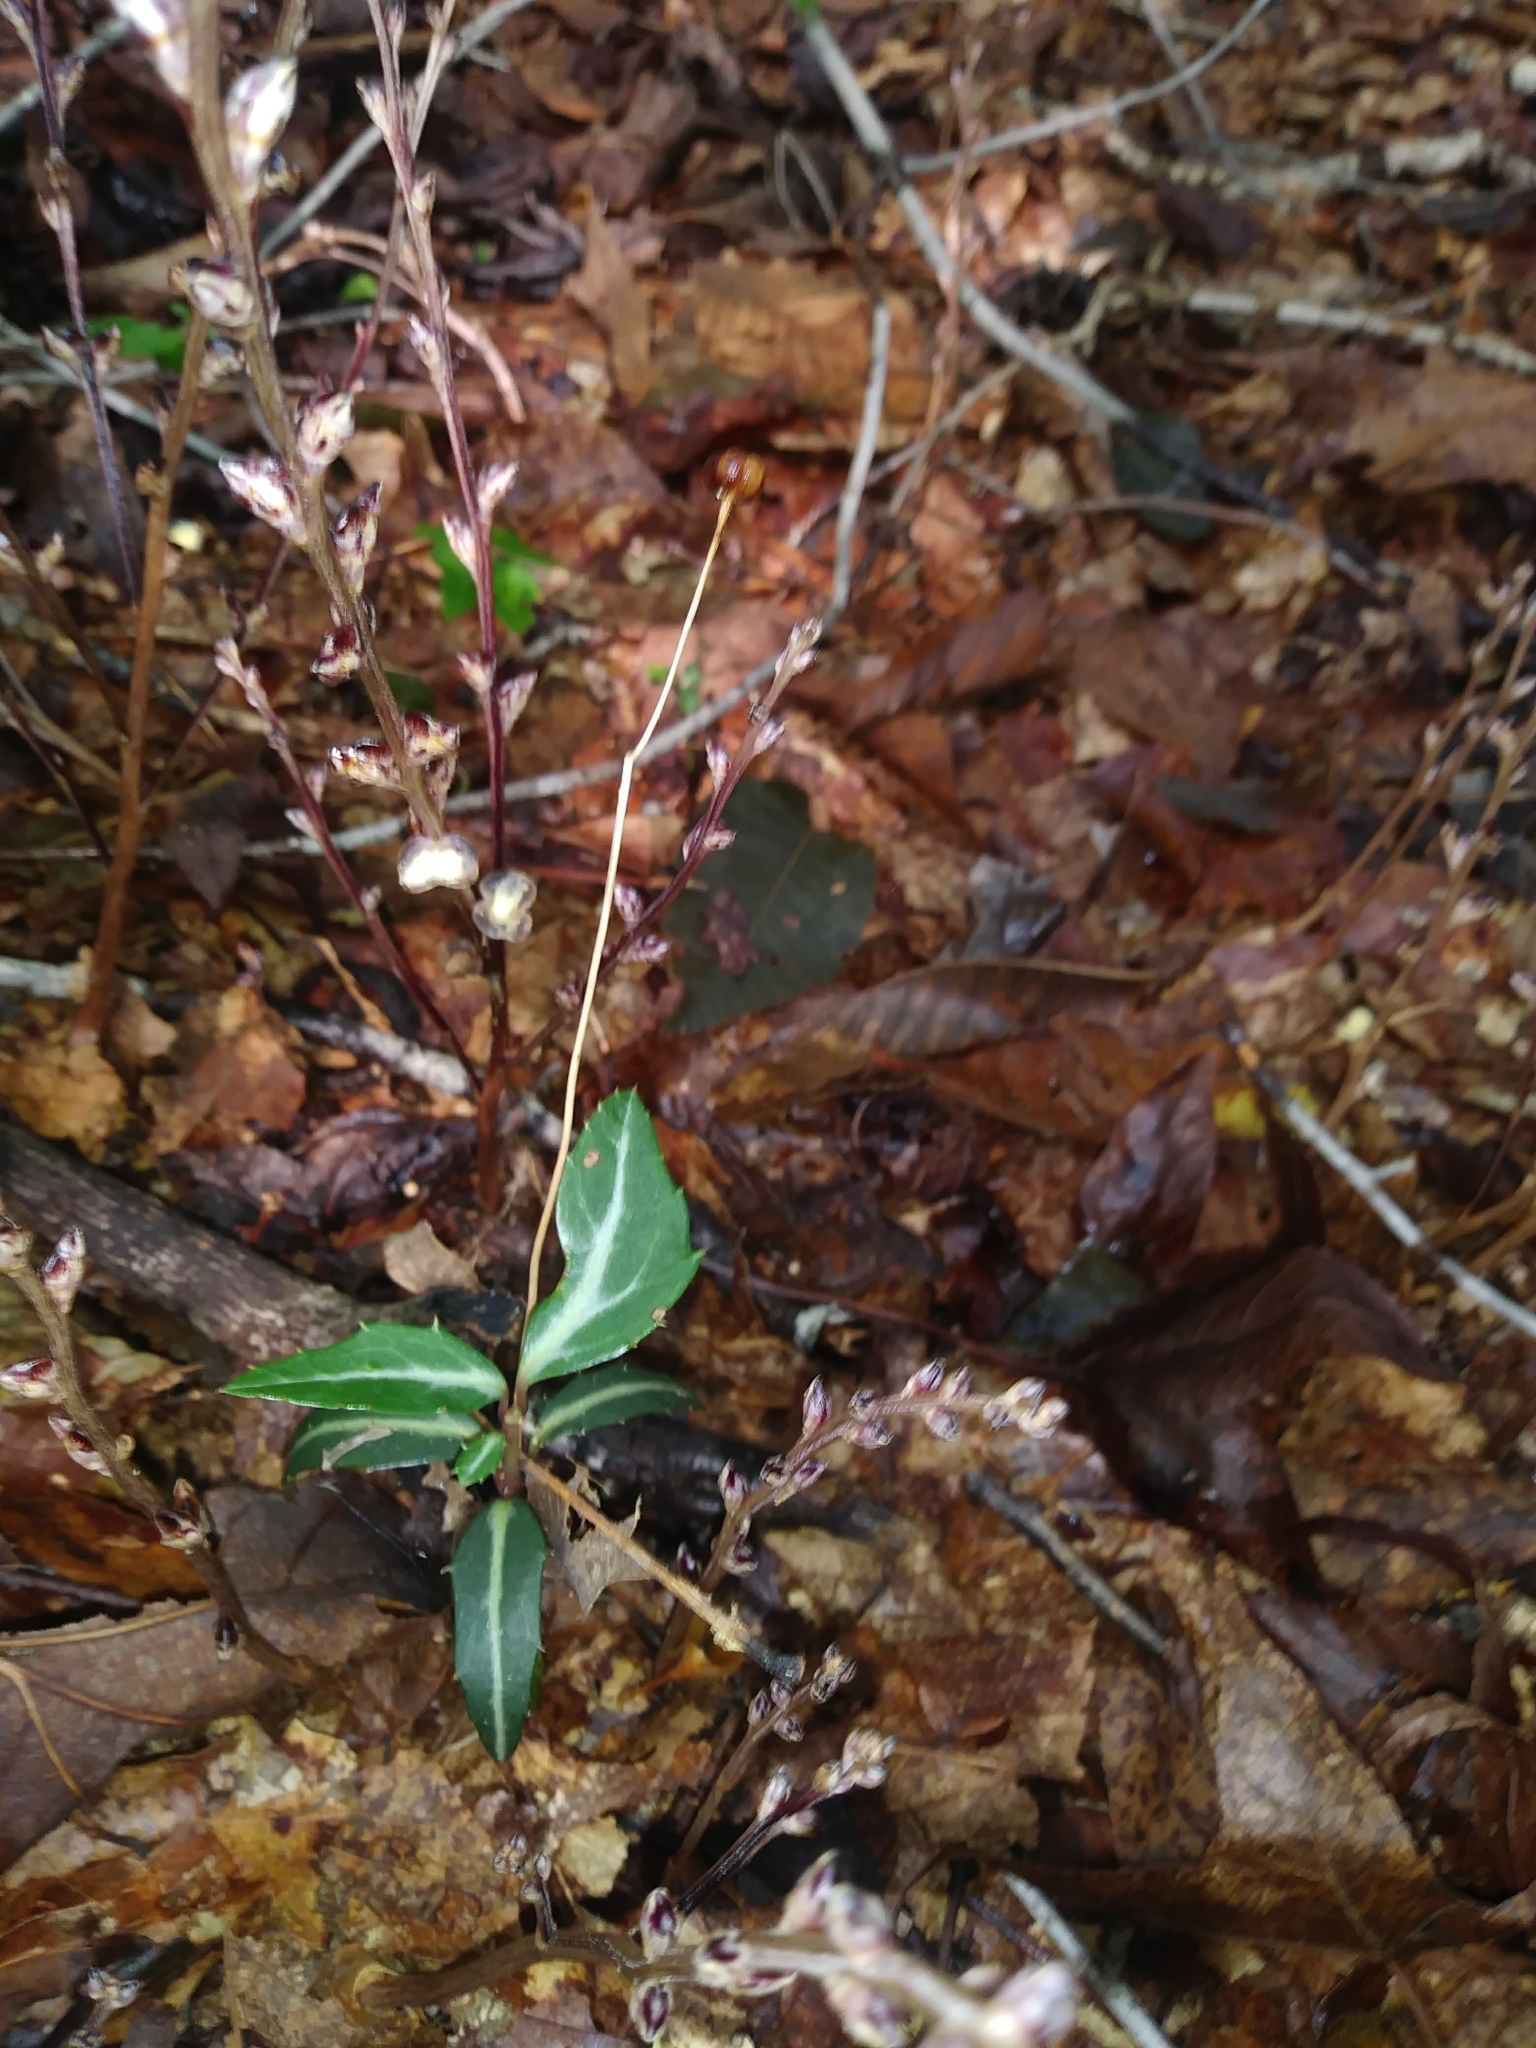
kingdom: Plantae
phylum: Tracheophyta
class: Magnoliopsida
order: Ericales
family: Ericaceae
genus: Chimaphila
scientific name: Chimaphila maculata
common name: Spotted pipsissewa
